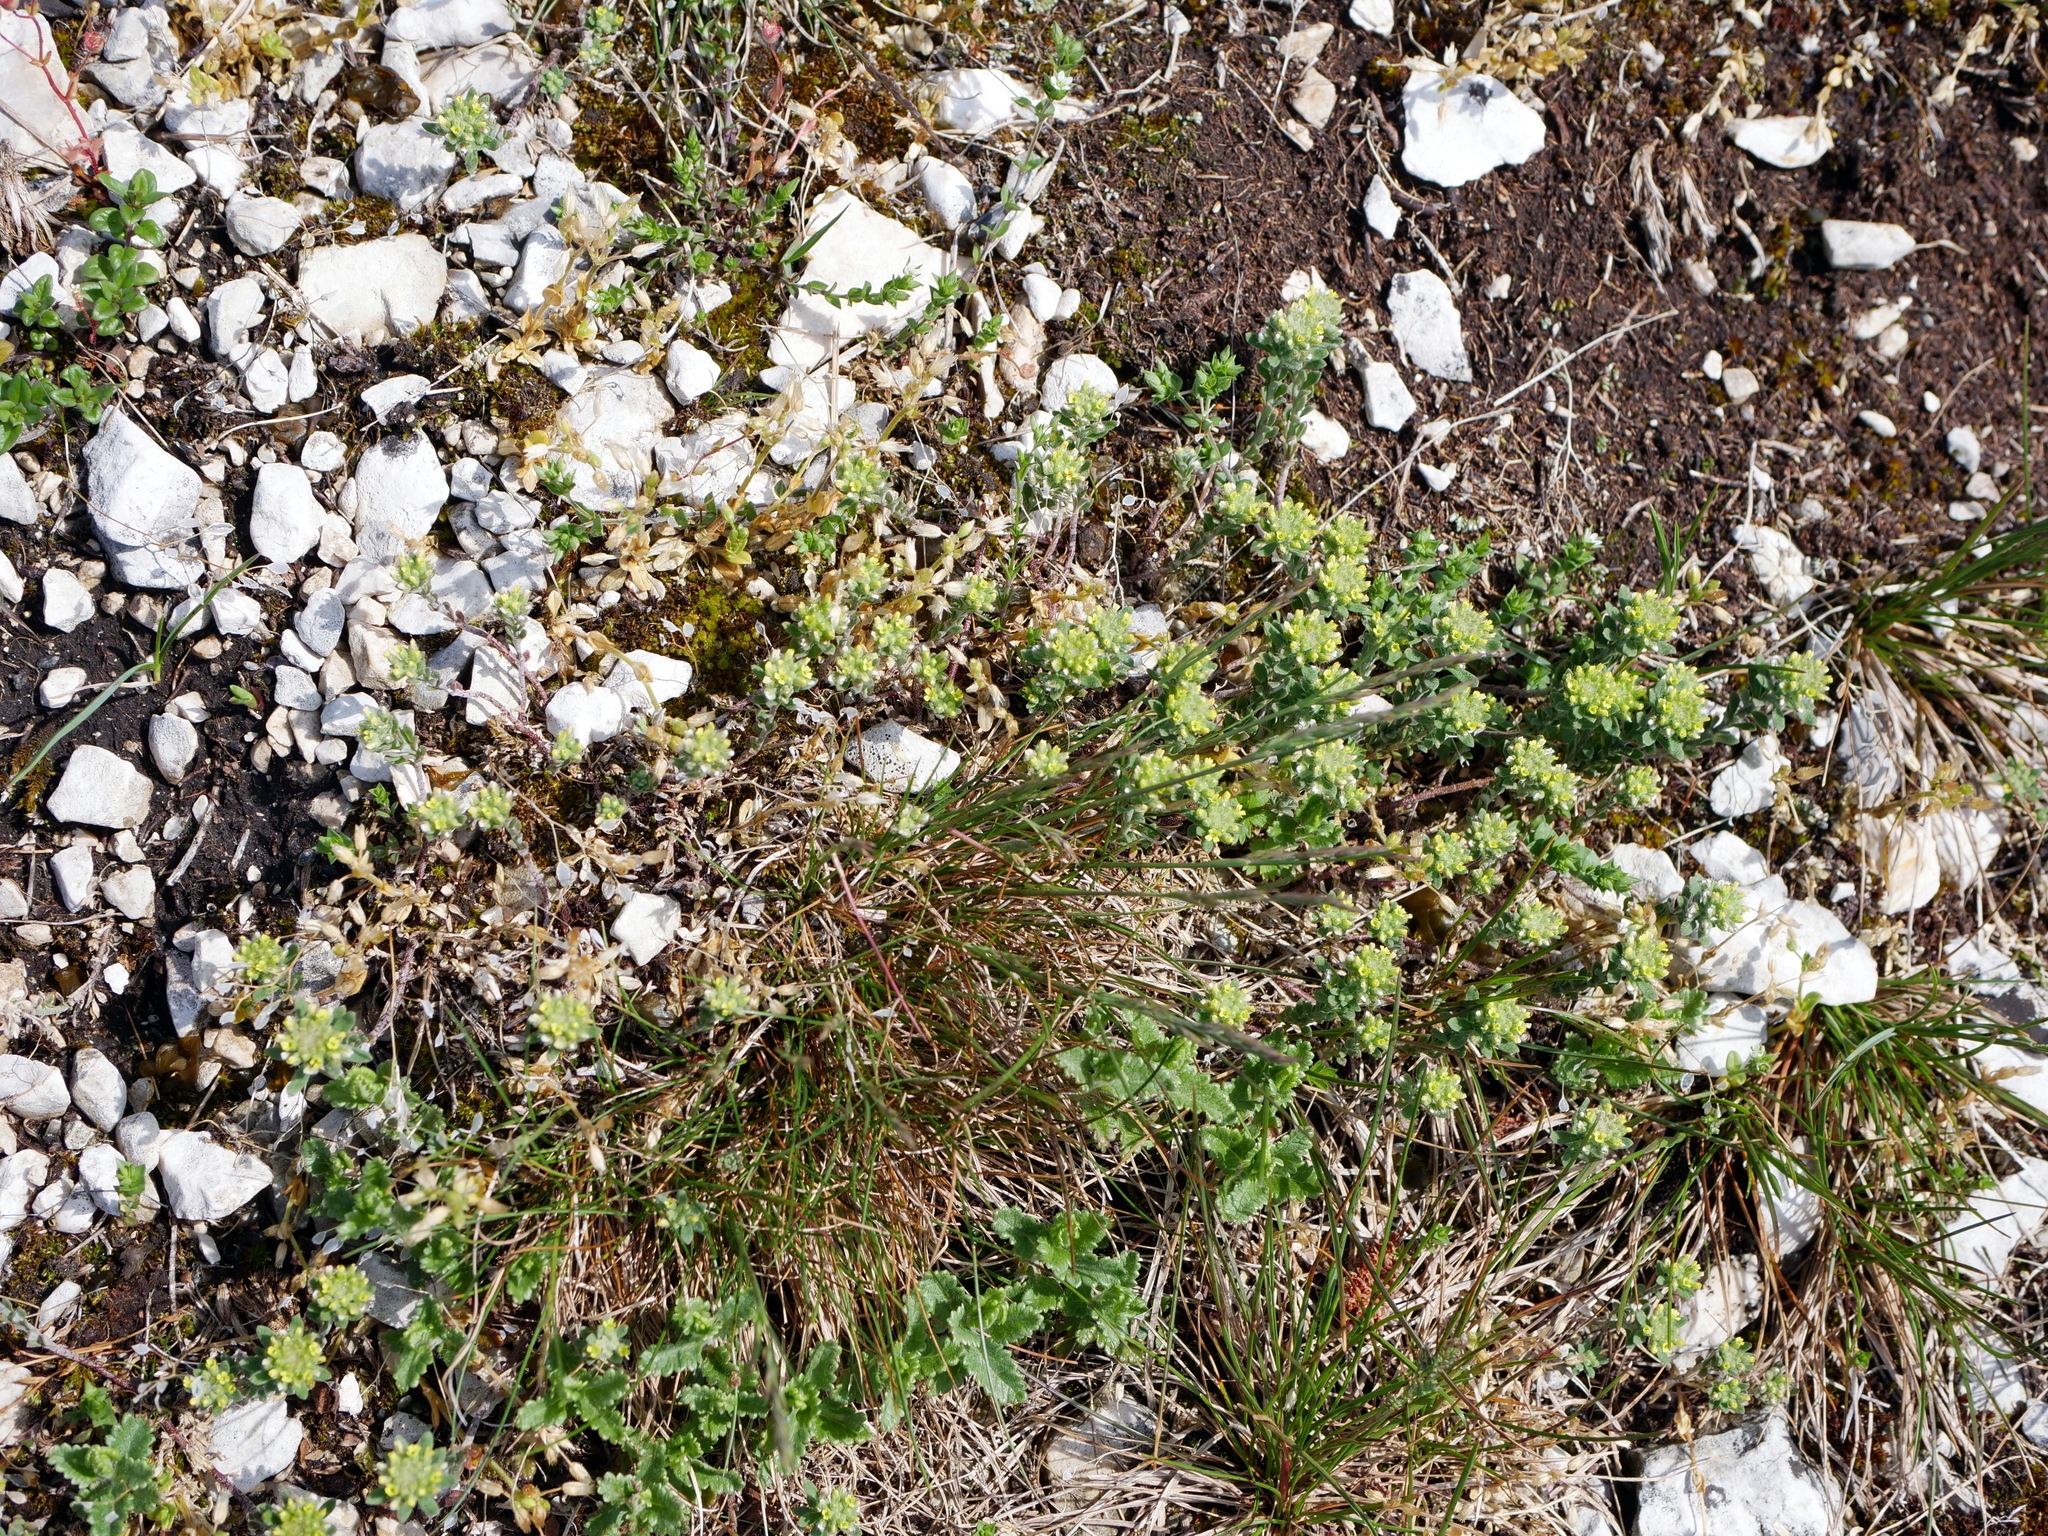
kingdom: Plantae
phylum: Tracheophyta
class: Magnoliopsida
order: Brassicales
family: Brassicaceae
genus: Alyssum
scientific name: Alyssum alyssoides
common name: Small alison
